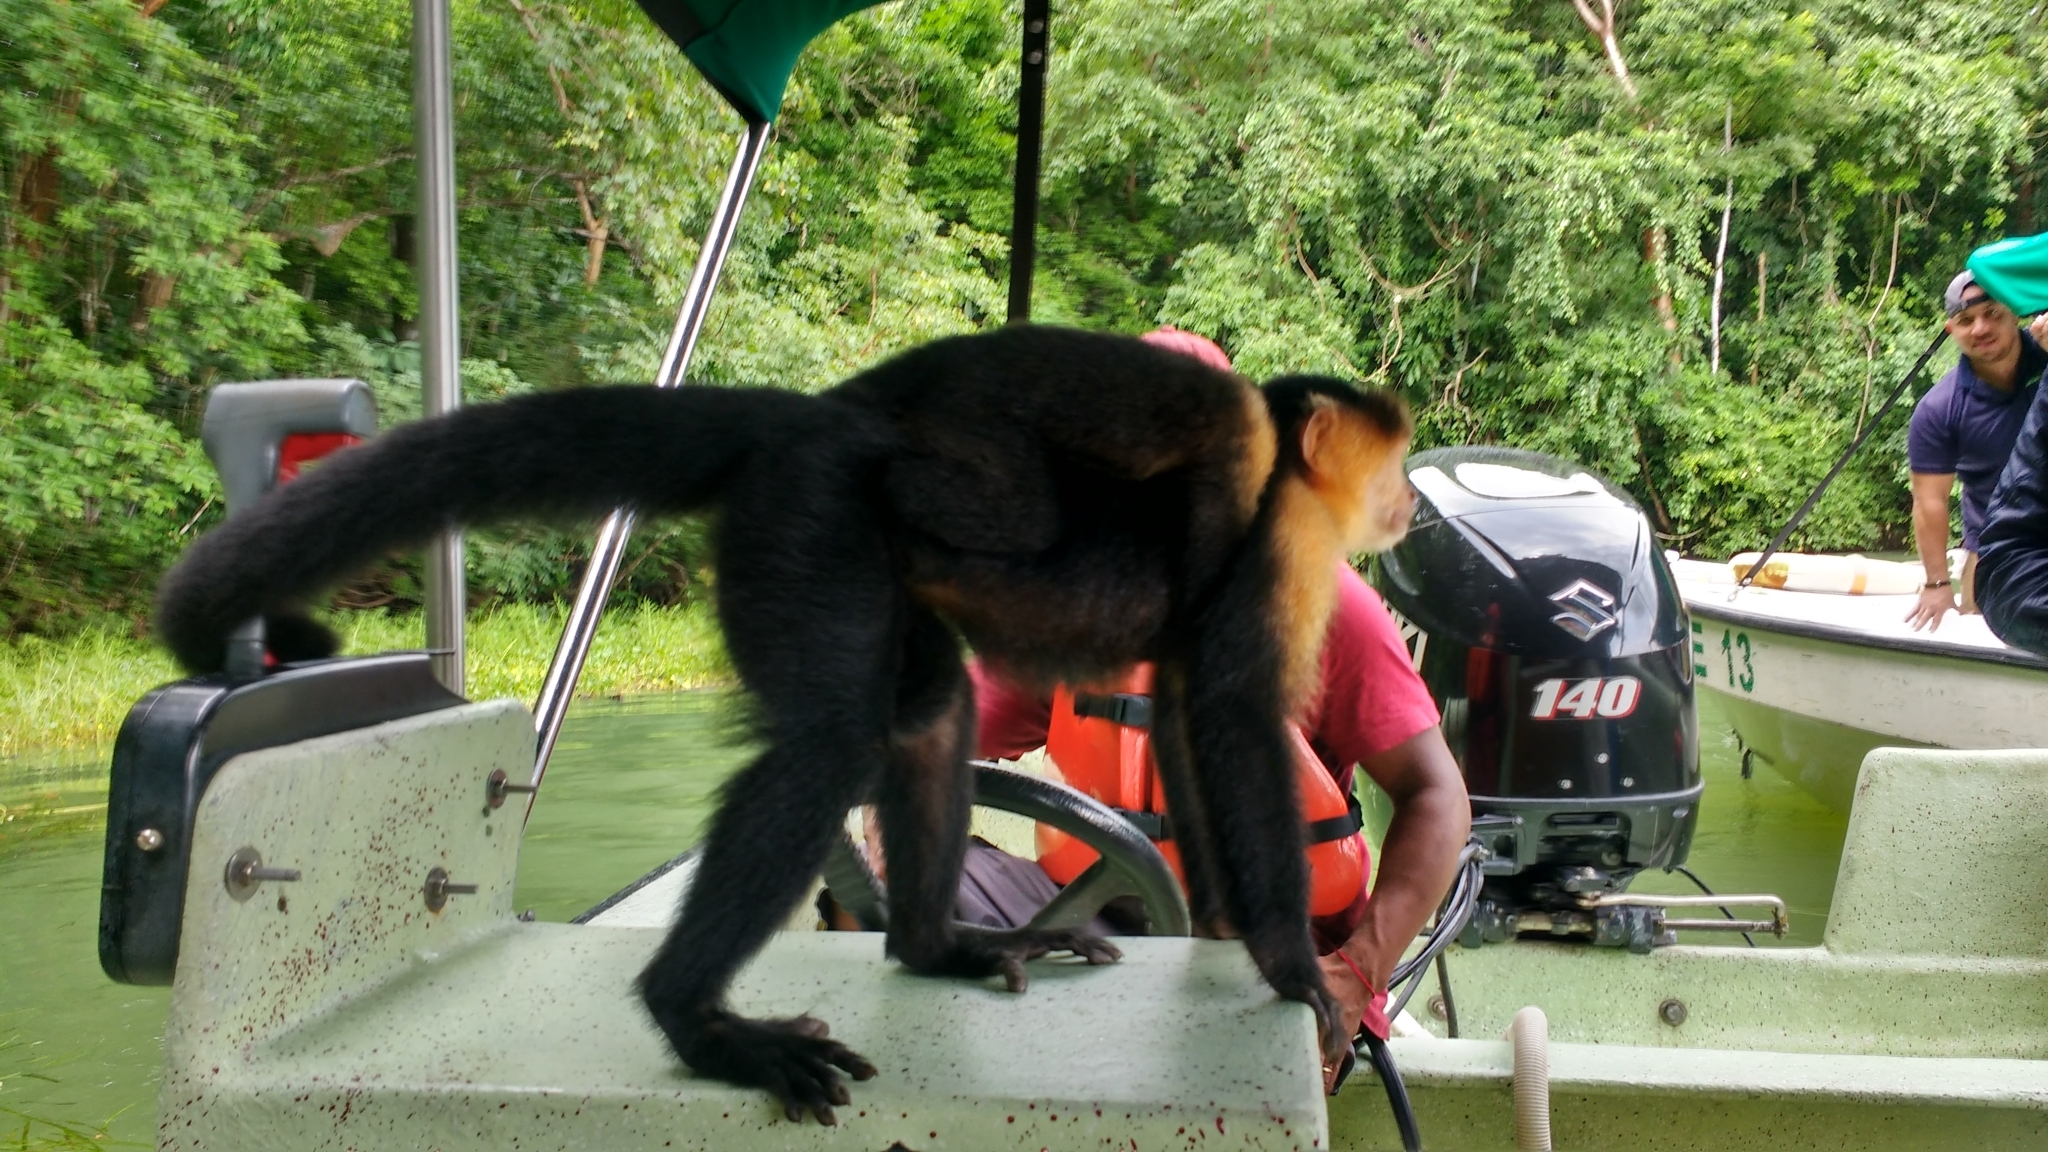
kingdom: Animalia
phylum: Chordata
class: Mammalia
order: Primates
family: Cebidae
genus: Cebus
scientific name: Cebus imitator
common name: Panamanian white-faced capuchin
